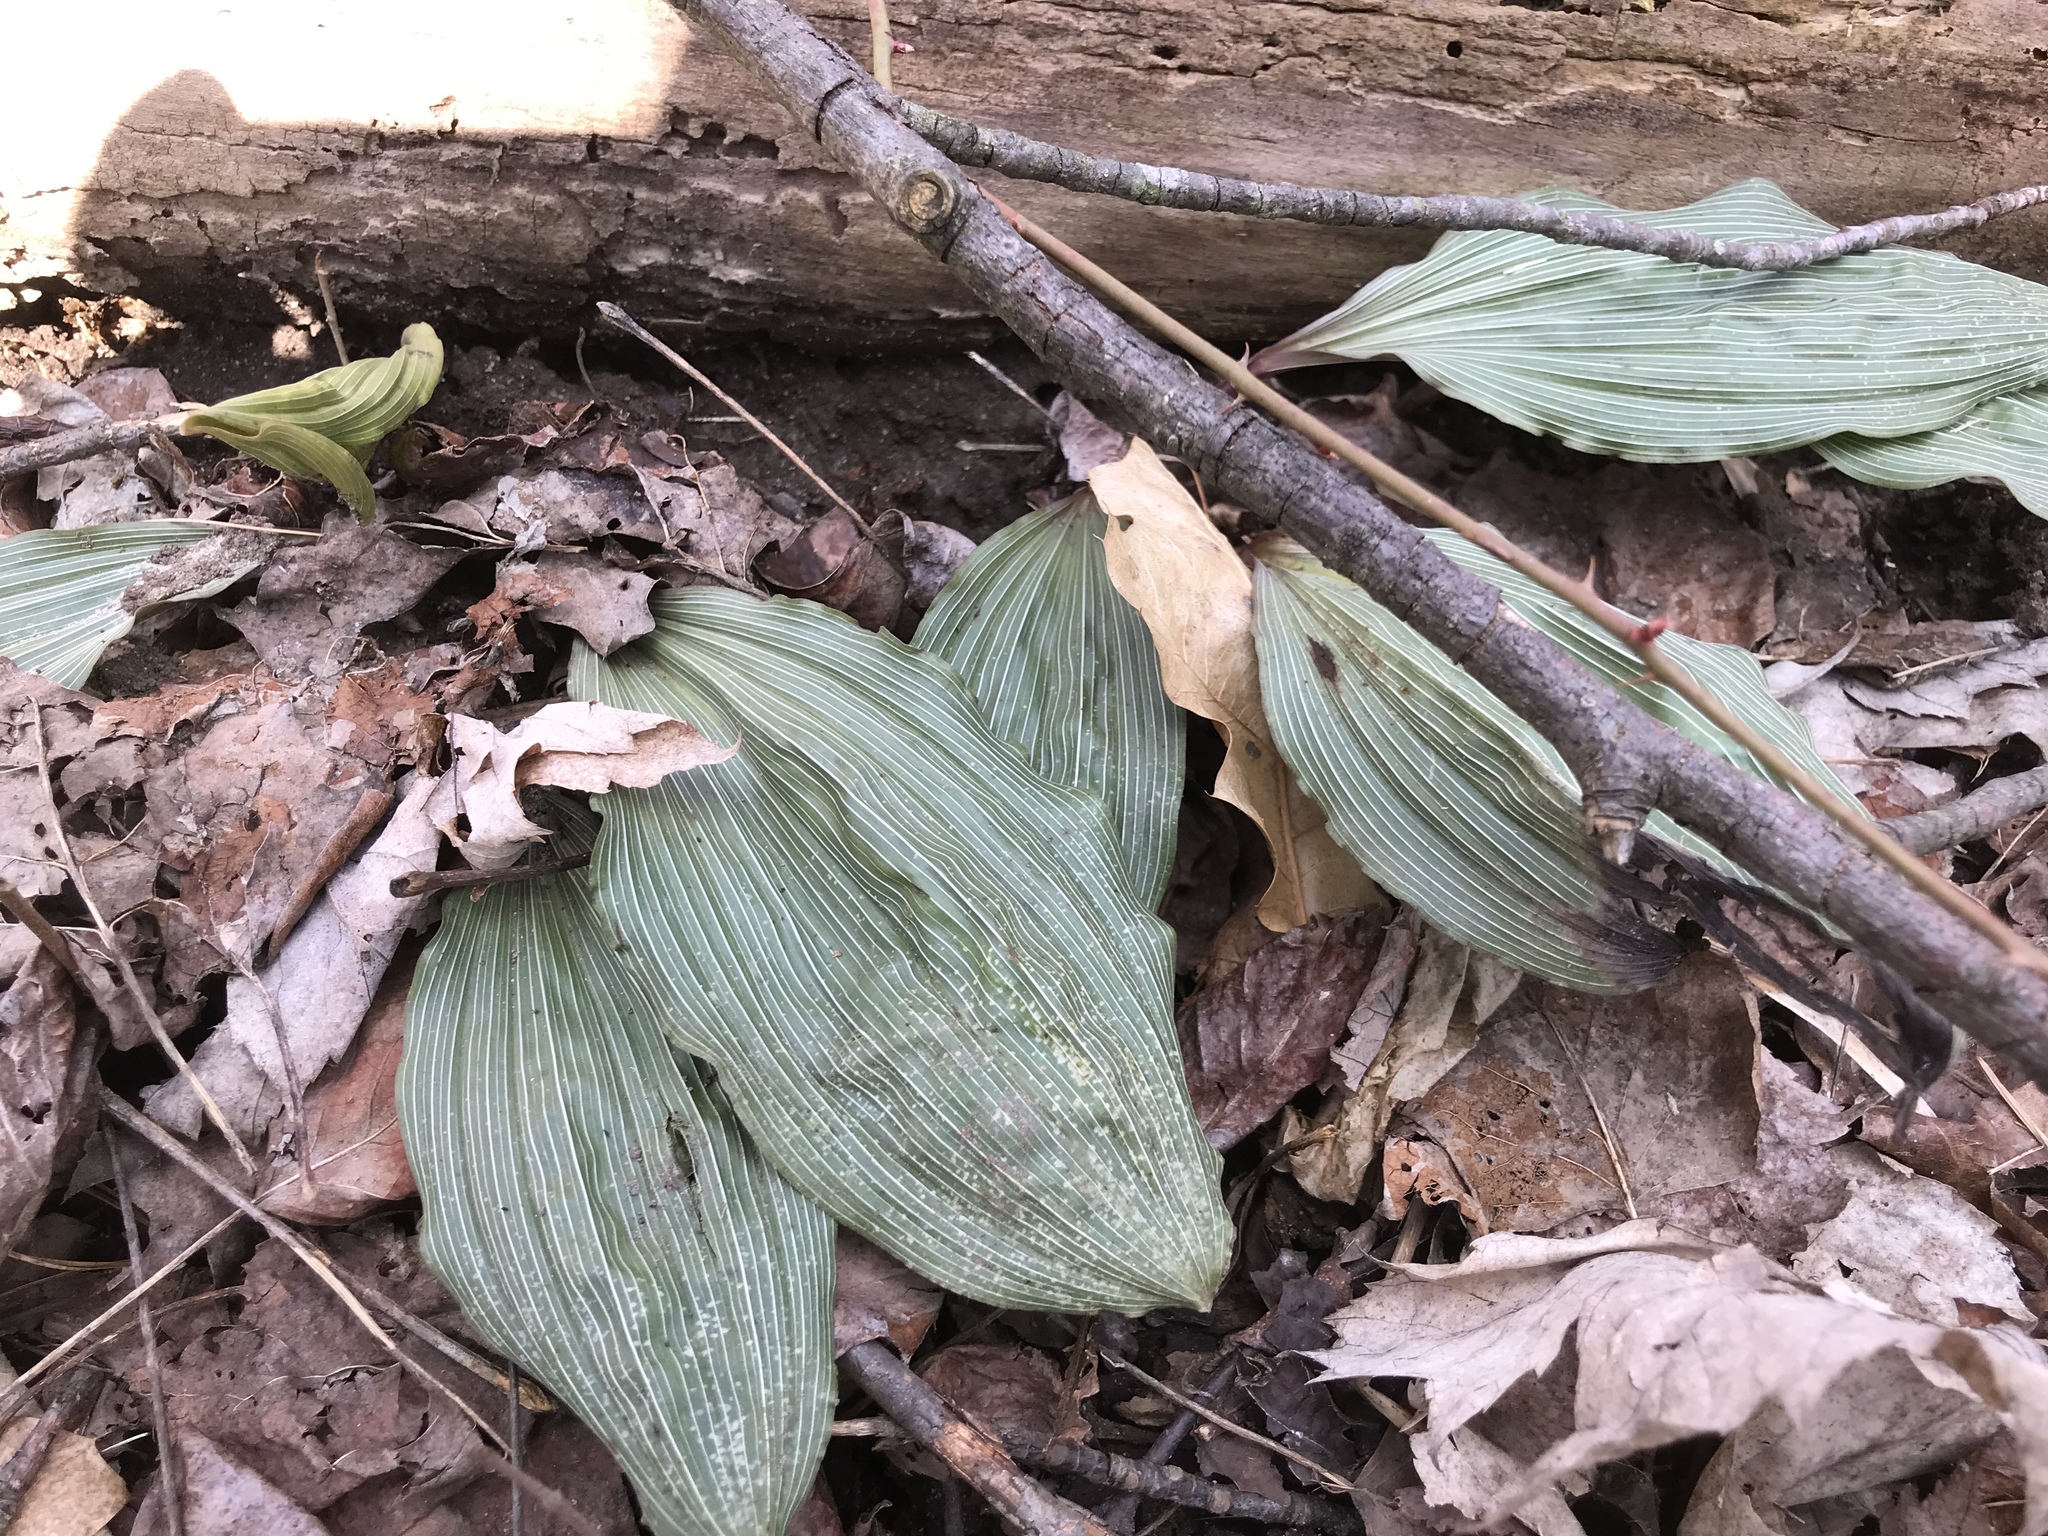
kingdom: Plantae
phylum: Tracheophyta
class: Liliopsida
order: Asparagales
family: Orchidaceae
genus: Aplectrum
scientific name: Aplectrum hyemale
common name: Adam-and-eve
